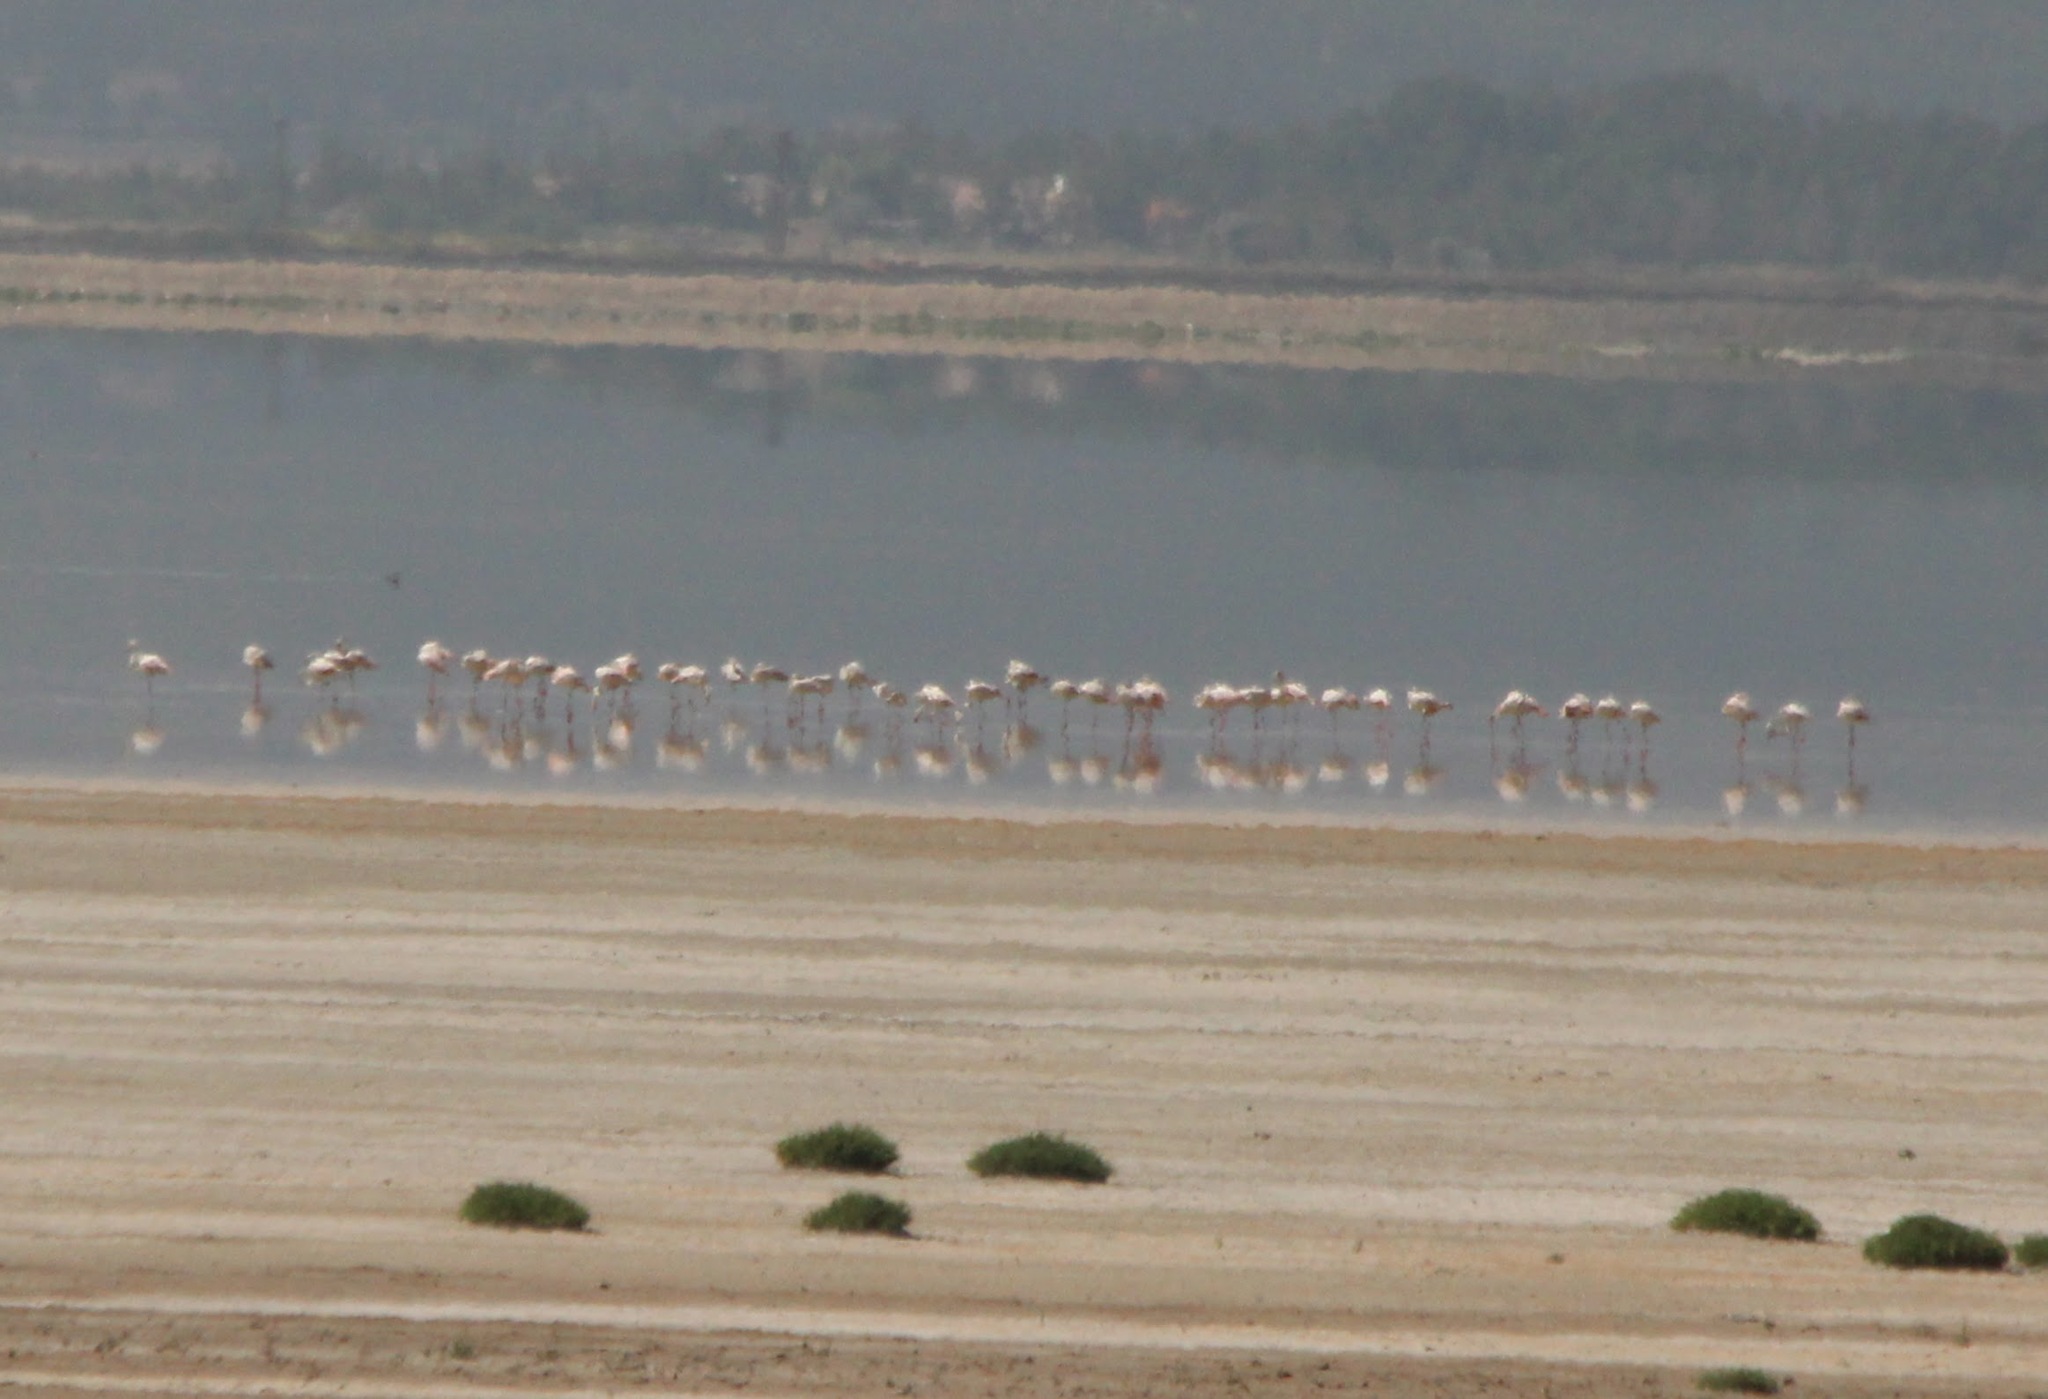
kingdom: Animalia
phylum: Chordata
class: Aves
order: Phoenicopteriformes
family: Phoenicopteridae
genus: Phoenicopterus
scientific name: Phoenicopterus roseus
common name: Greater flamingo
